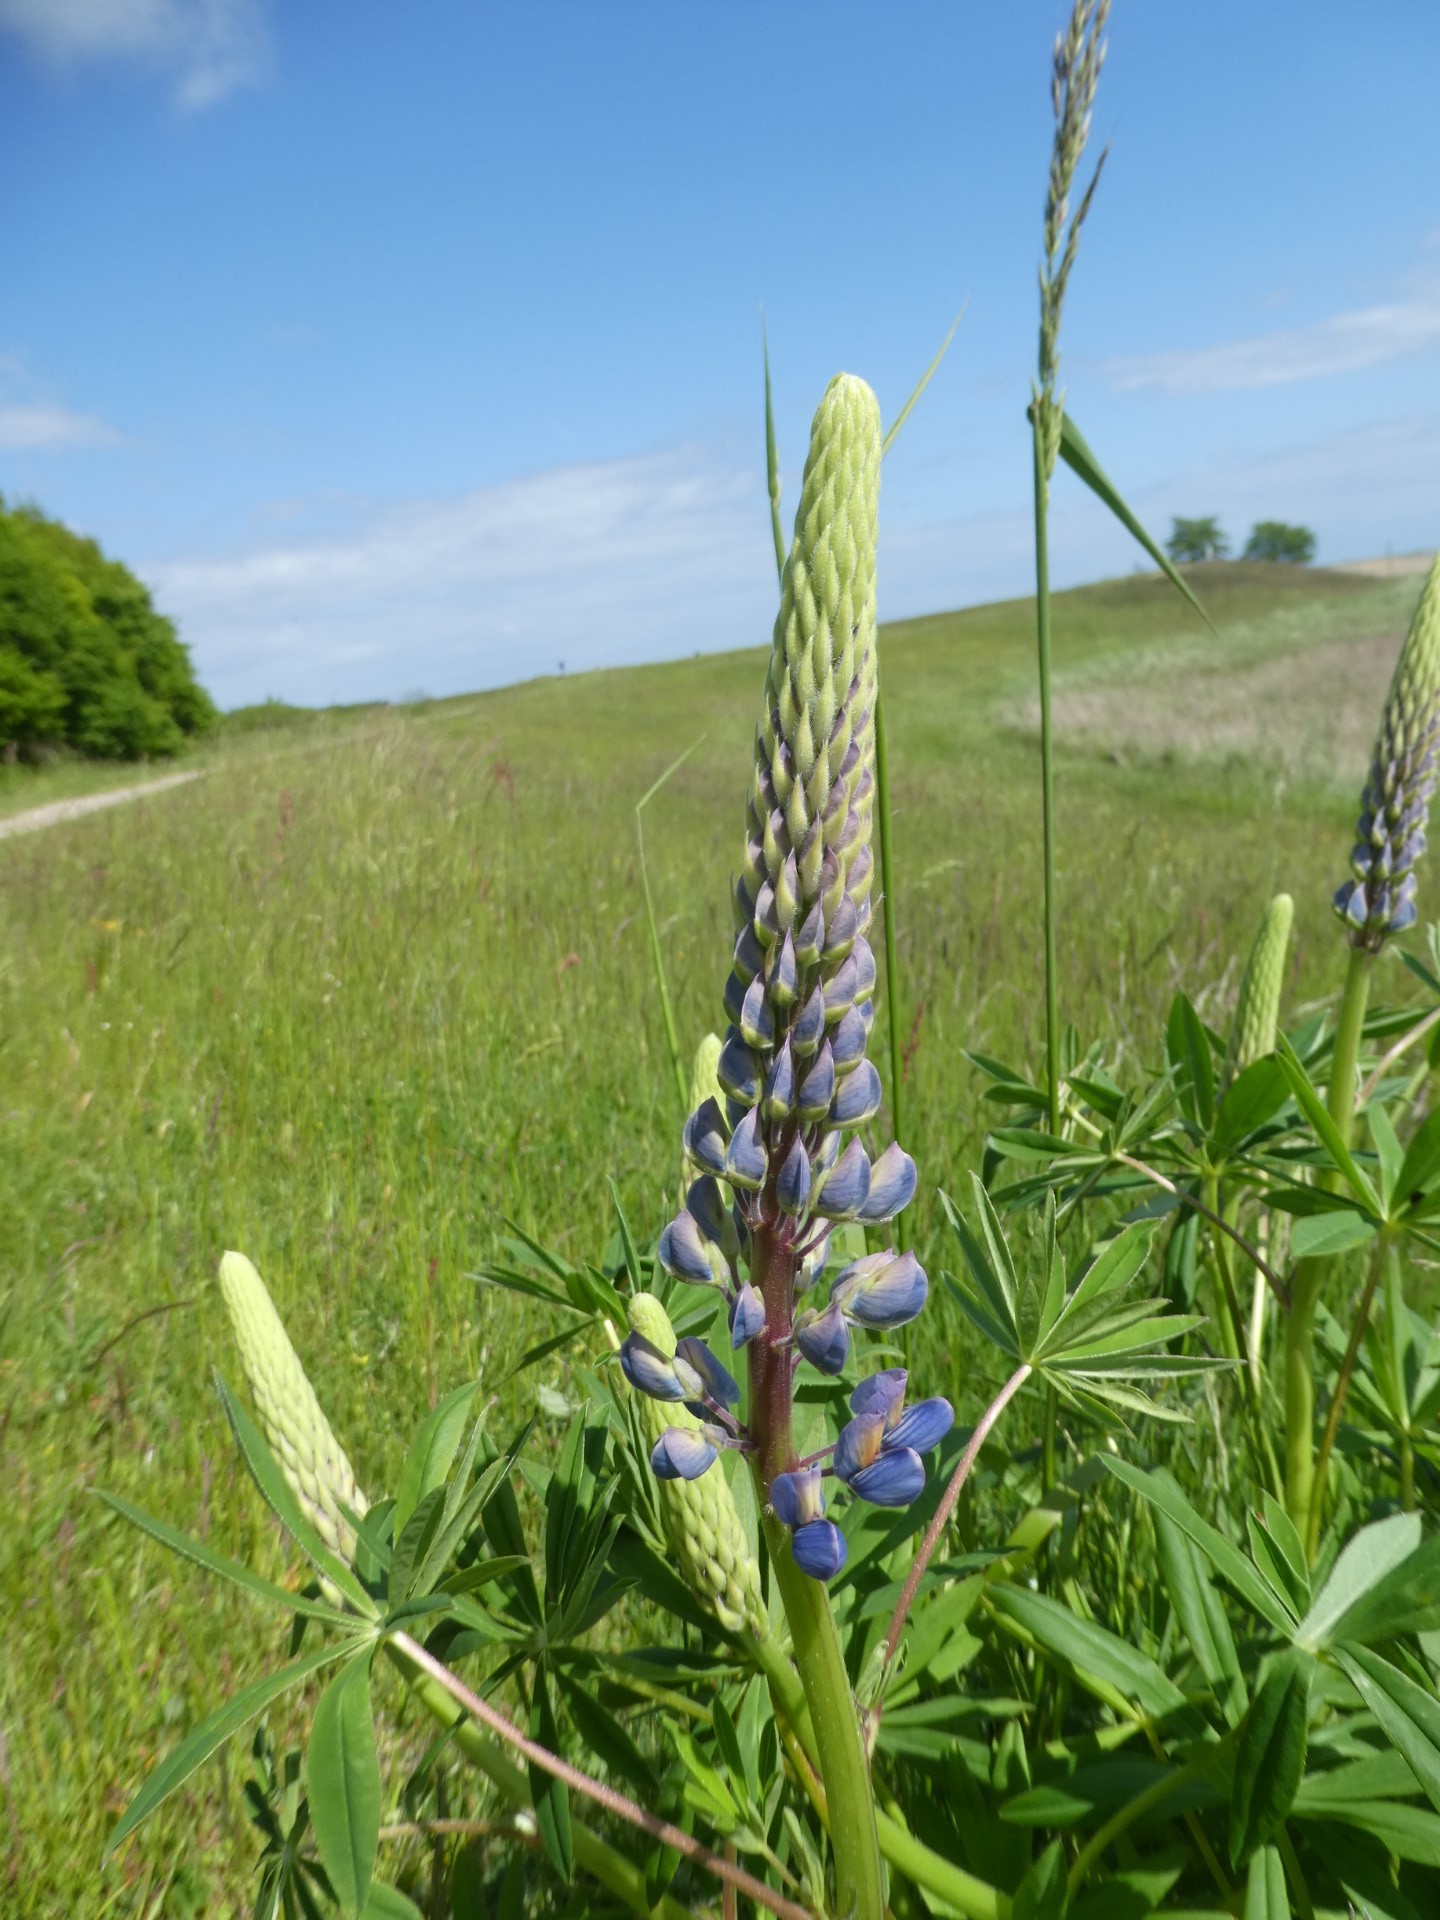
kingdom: Plantae
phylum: Tracheophyta
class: Magnoliopsida
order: Fabales
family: Fabaceae
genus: Lupinus
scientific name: Lupinus polyphyllus
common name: Garden lupin
